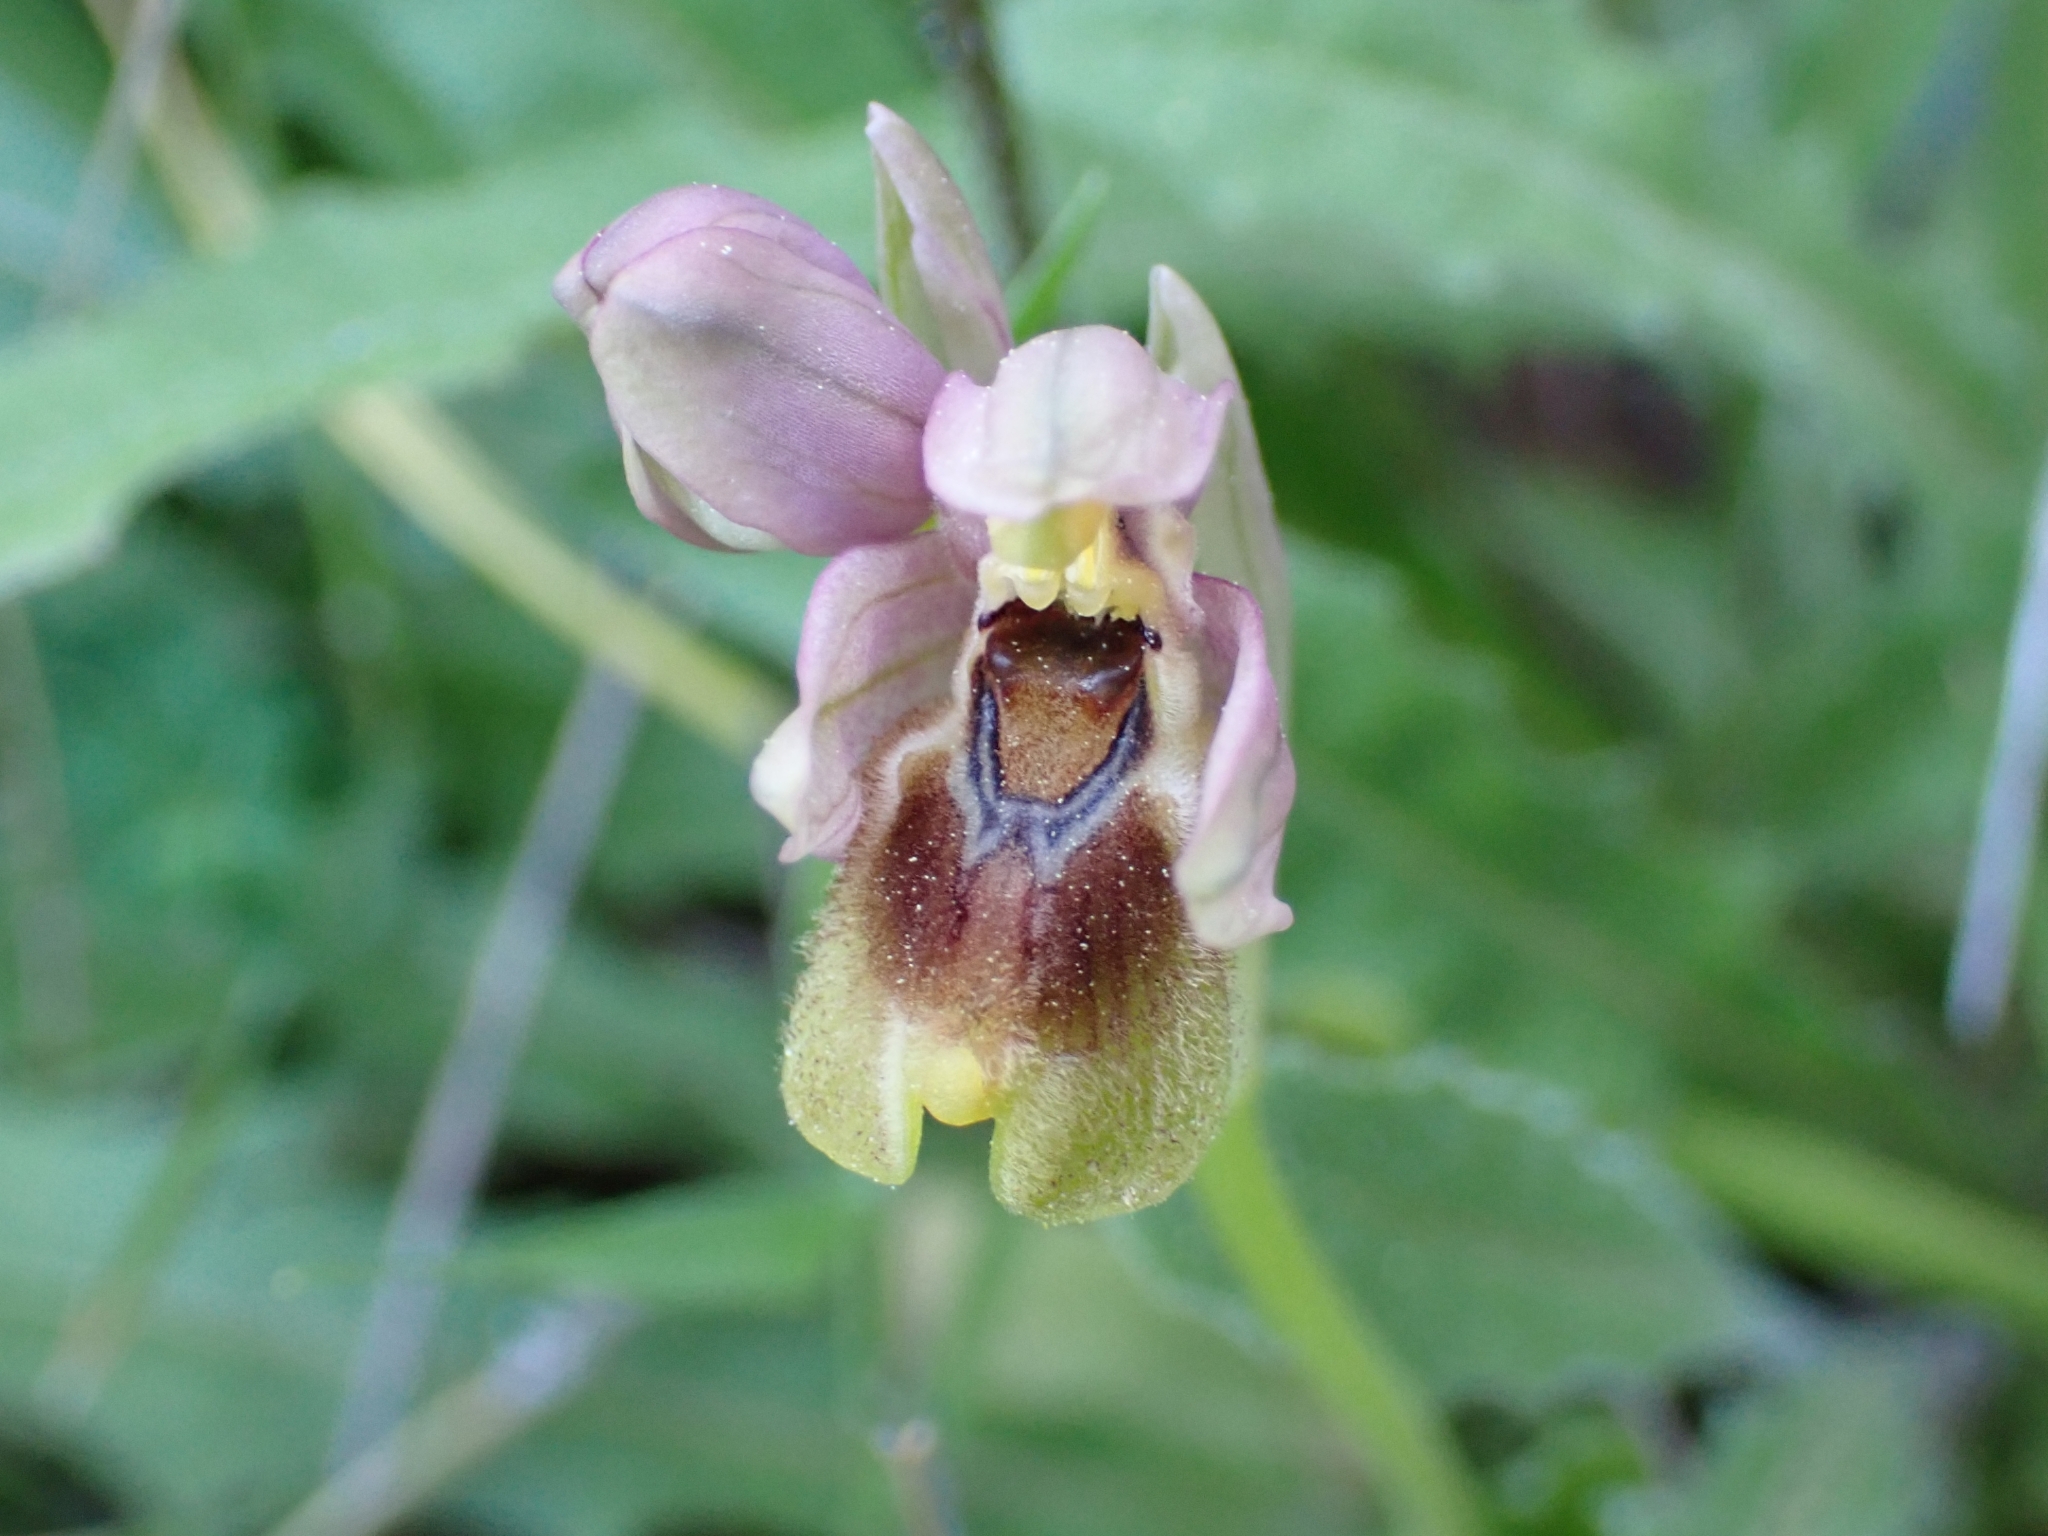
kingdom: Plantae
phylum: Tracheophyta
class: Liliopsida
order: Asparagales
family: Orchidaceae
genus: Ophrys
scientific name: Ophrys tenthredinifera
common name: Sawfly orchid
